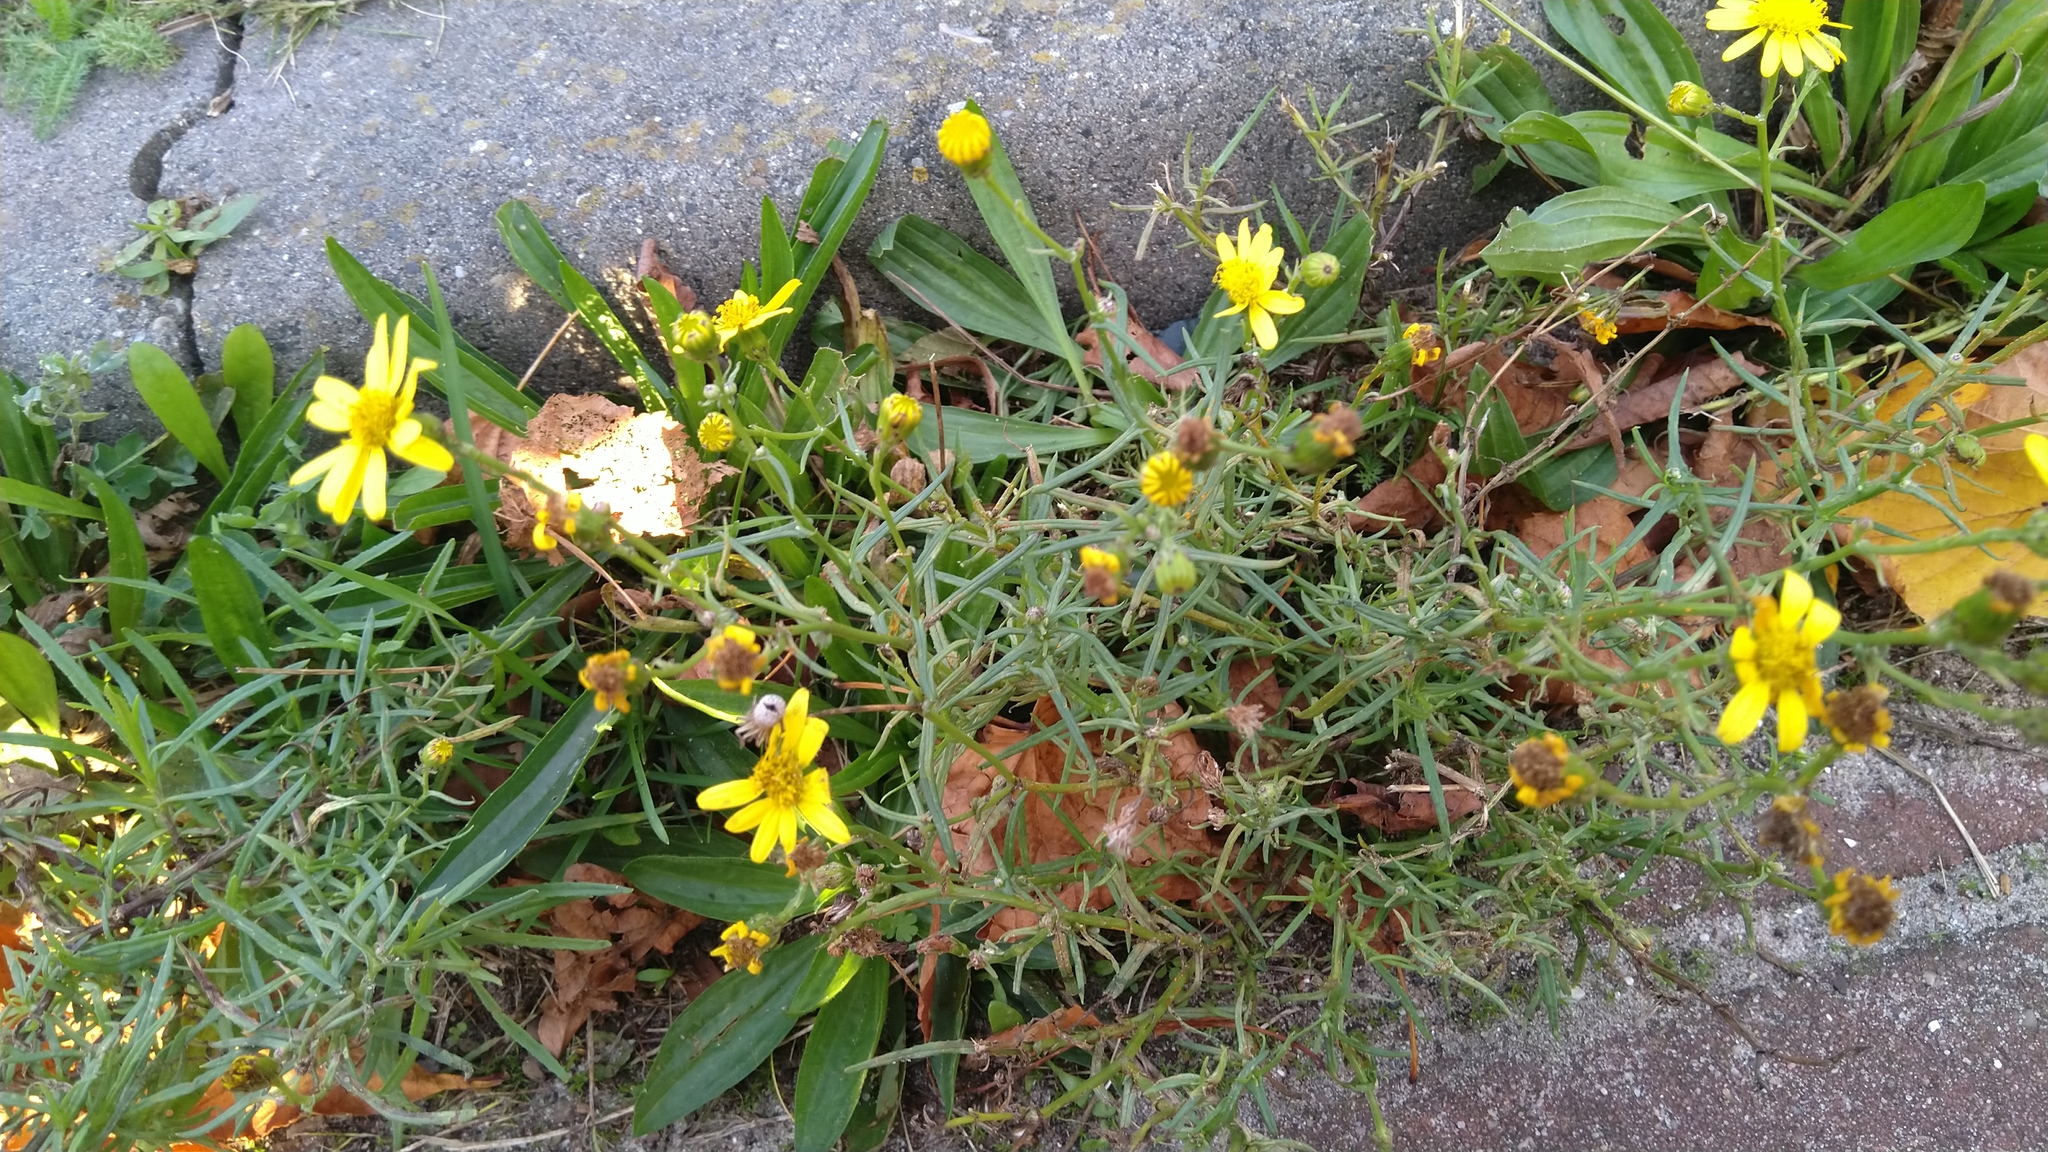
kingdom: Plantae
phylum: Tracheophyta
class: Magnoliopsida
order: Asterales
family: Asteraceae
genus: Senecio
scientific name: Senecio inaequidens
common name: Narrow-leaved ragwort
